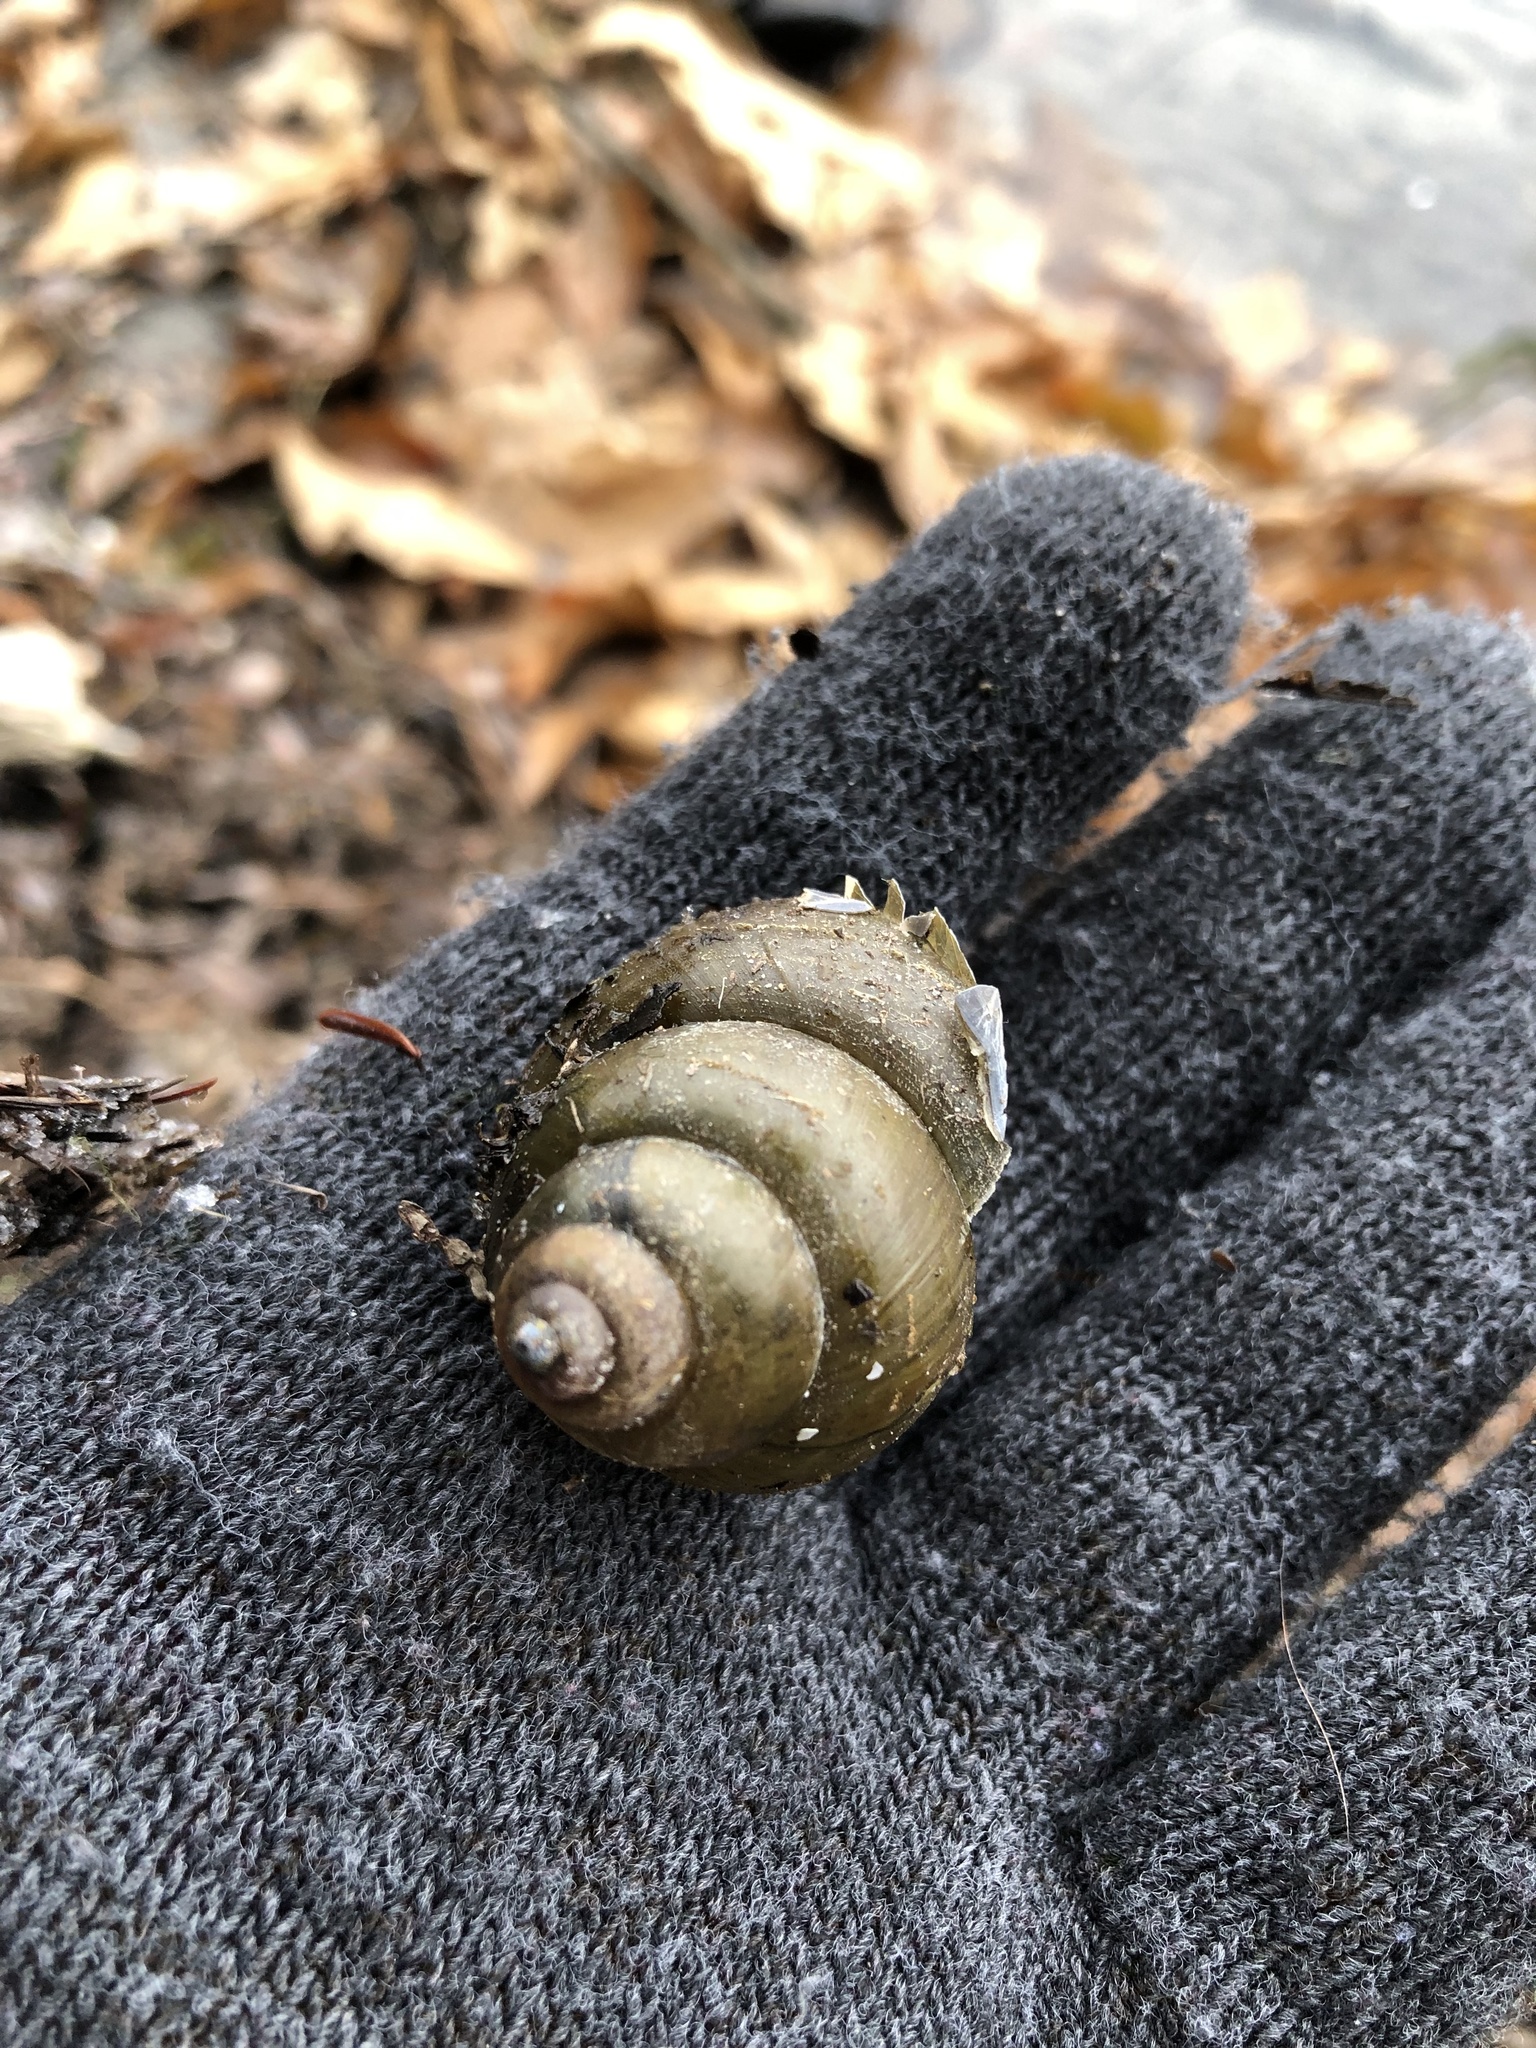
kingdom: Animalia
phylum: Mollusca
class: Gastropoda
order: Architaenioglossa
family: Viviparidae
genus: Cipangopaludina
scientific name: Cipangopaludina chinensis
